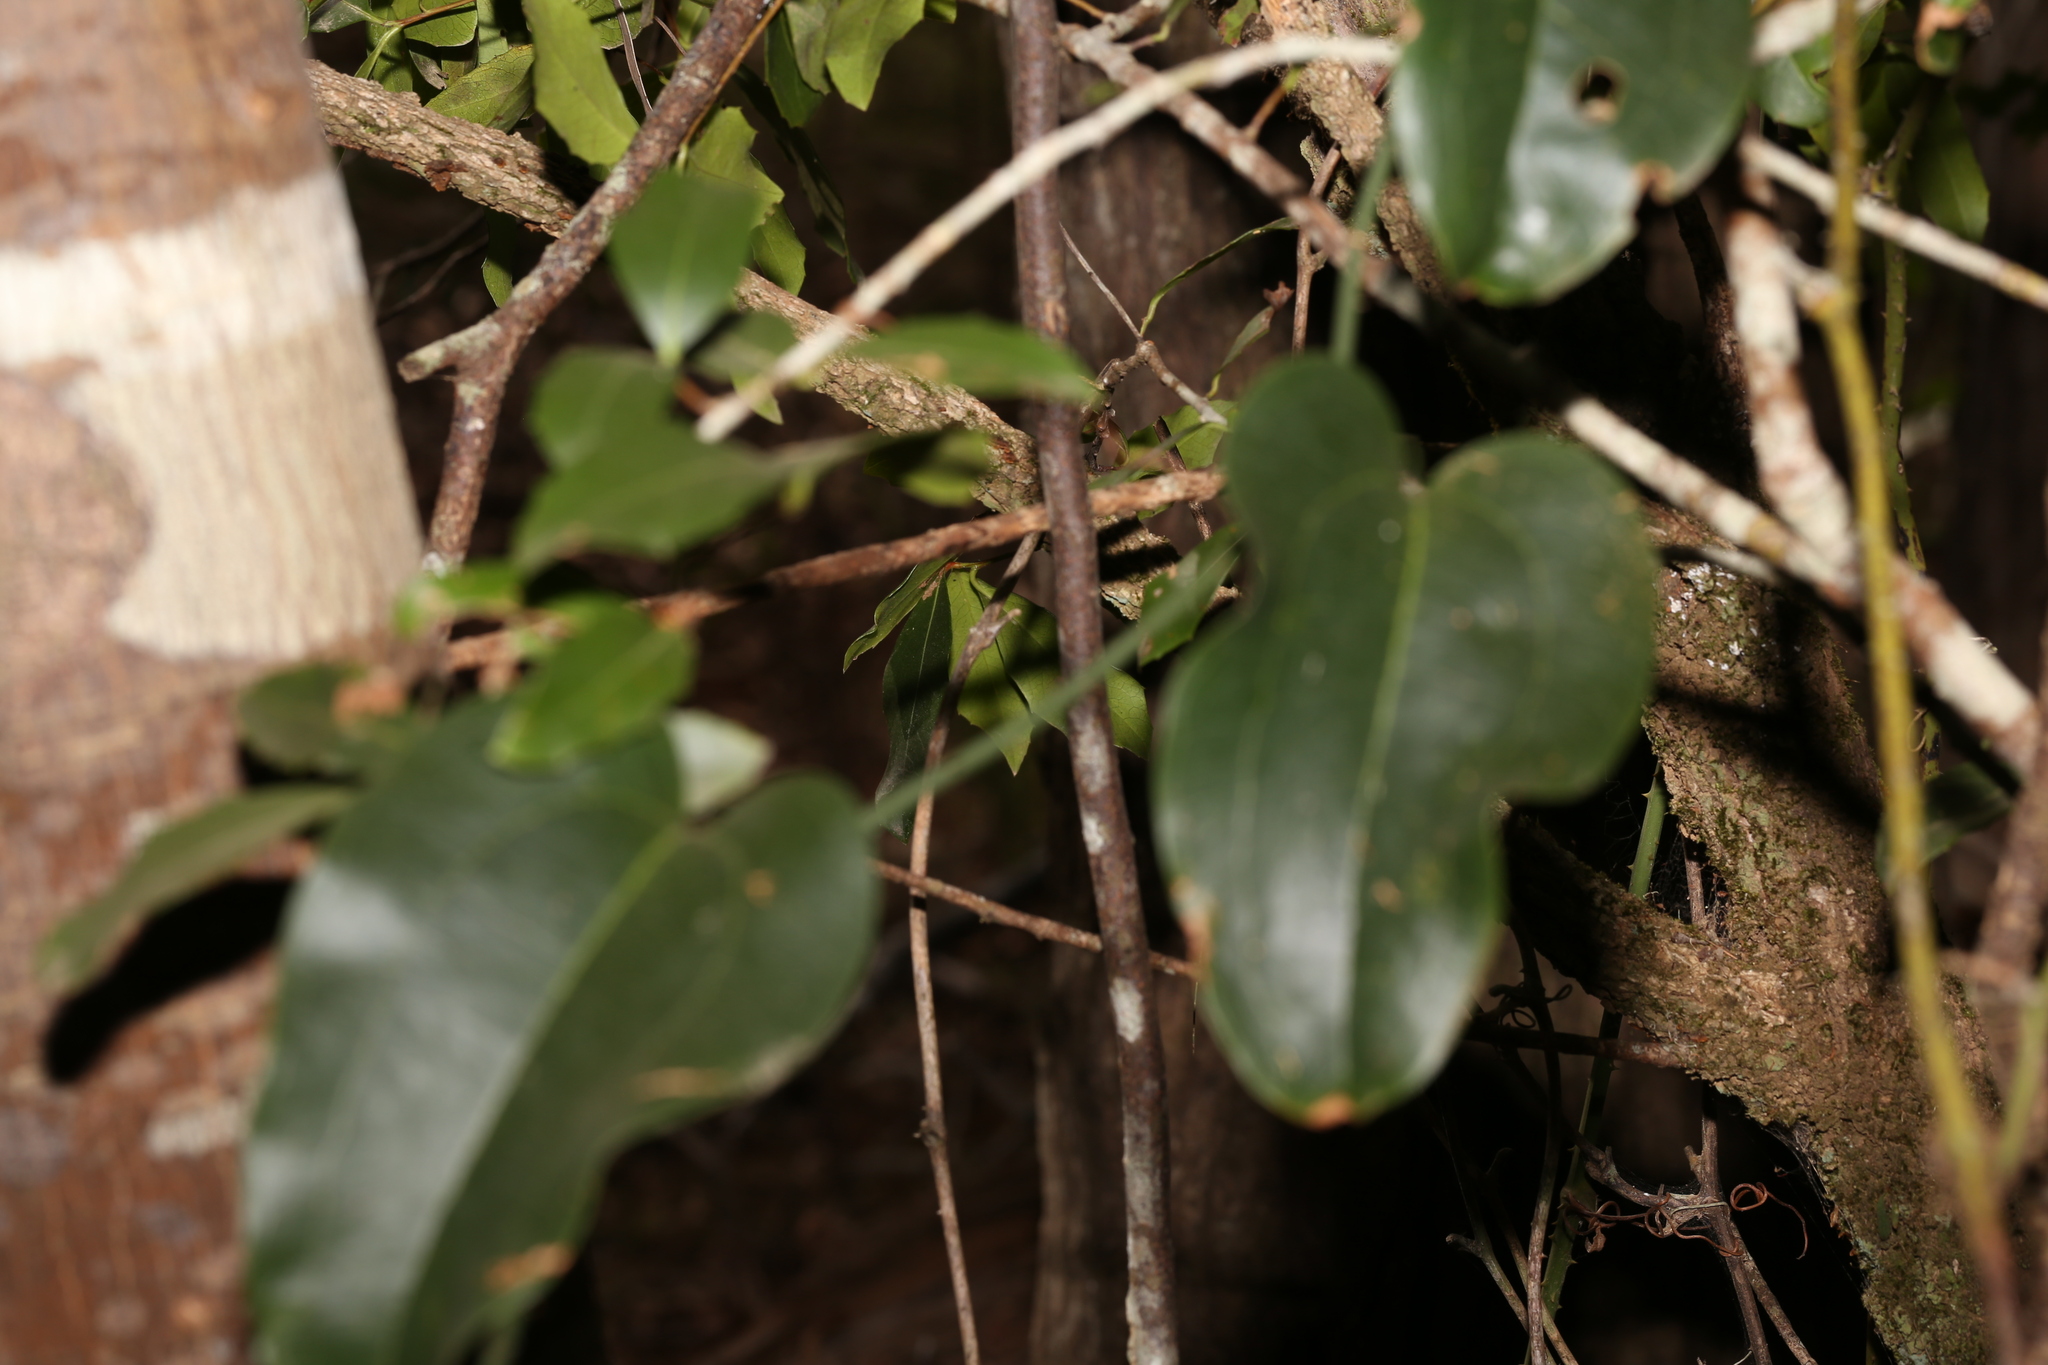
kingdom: Plantae
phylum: Tracheophyta
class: Liliopsida
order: Liliales
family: Smilacaceae
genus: Smilax
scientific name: Smilax australis
